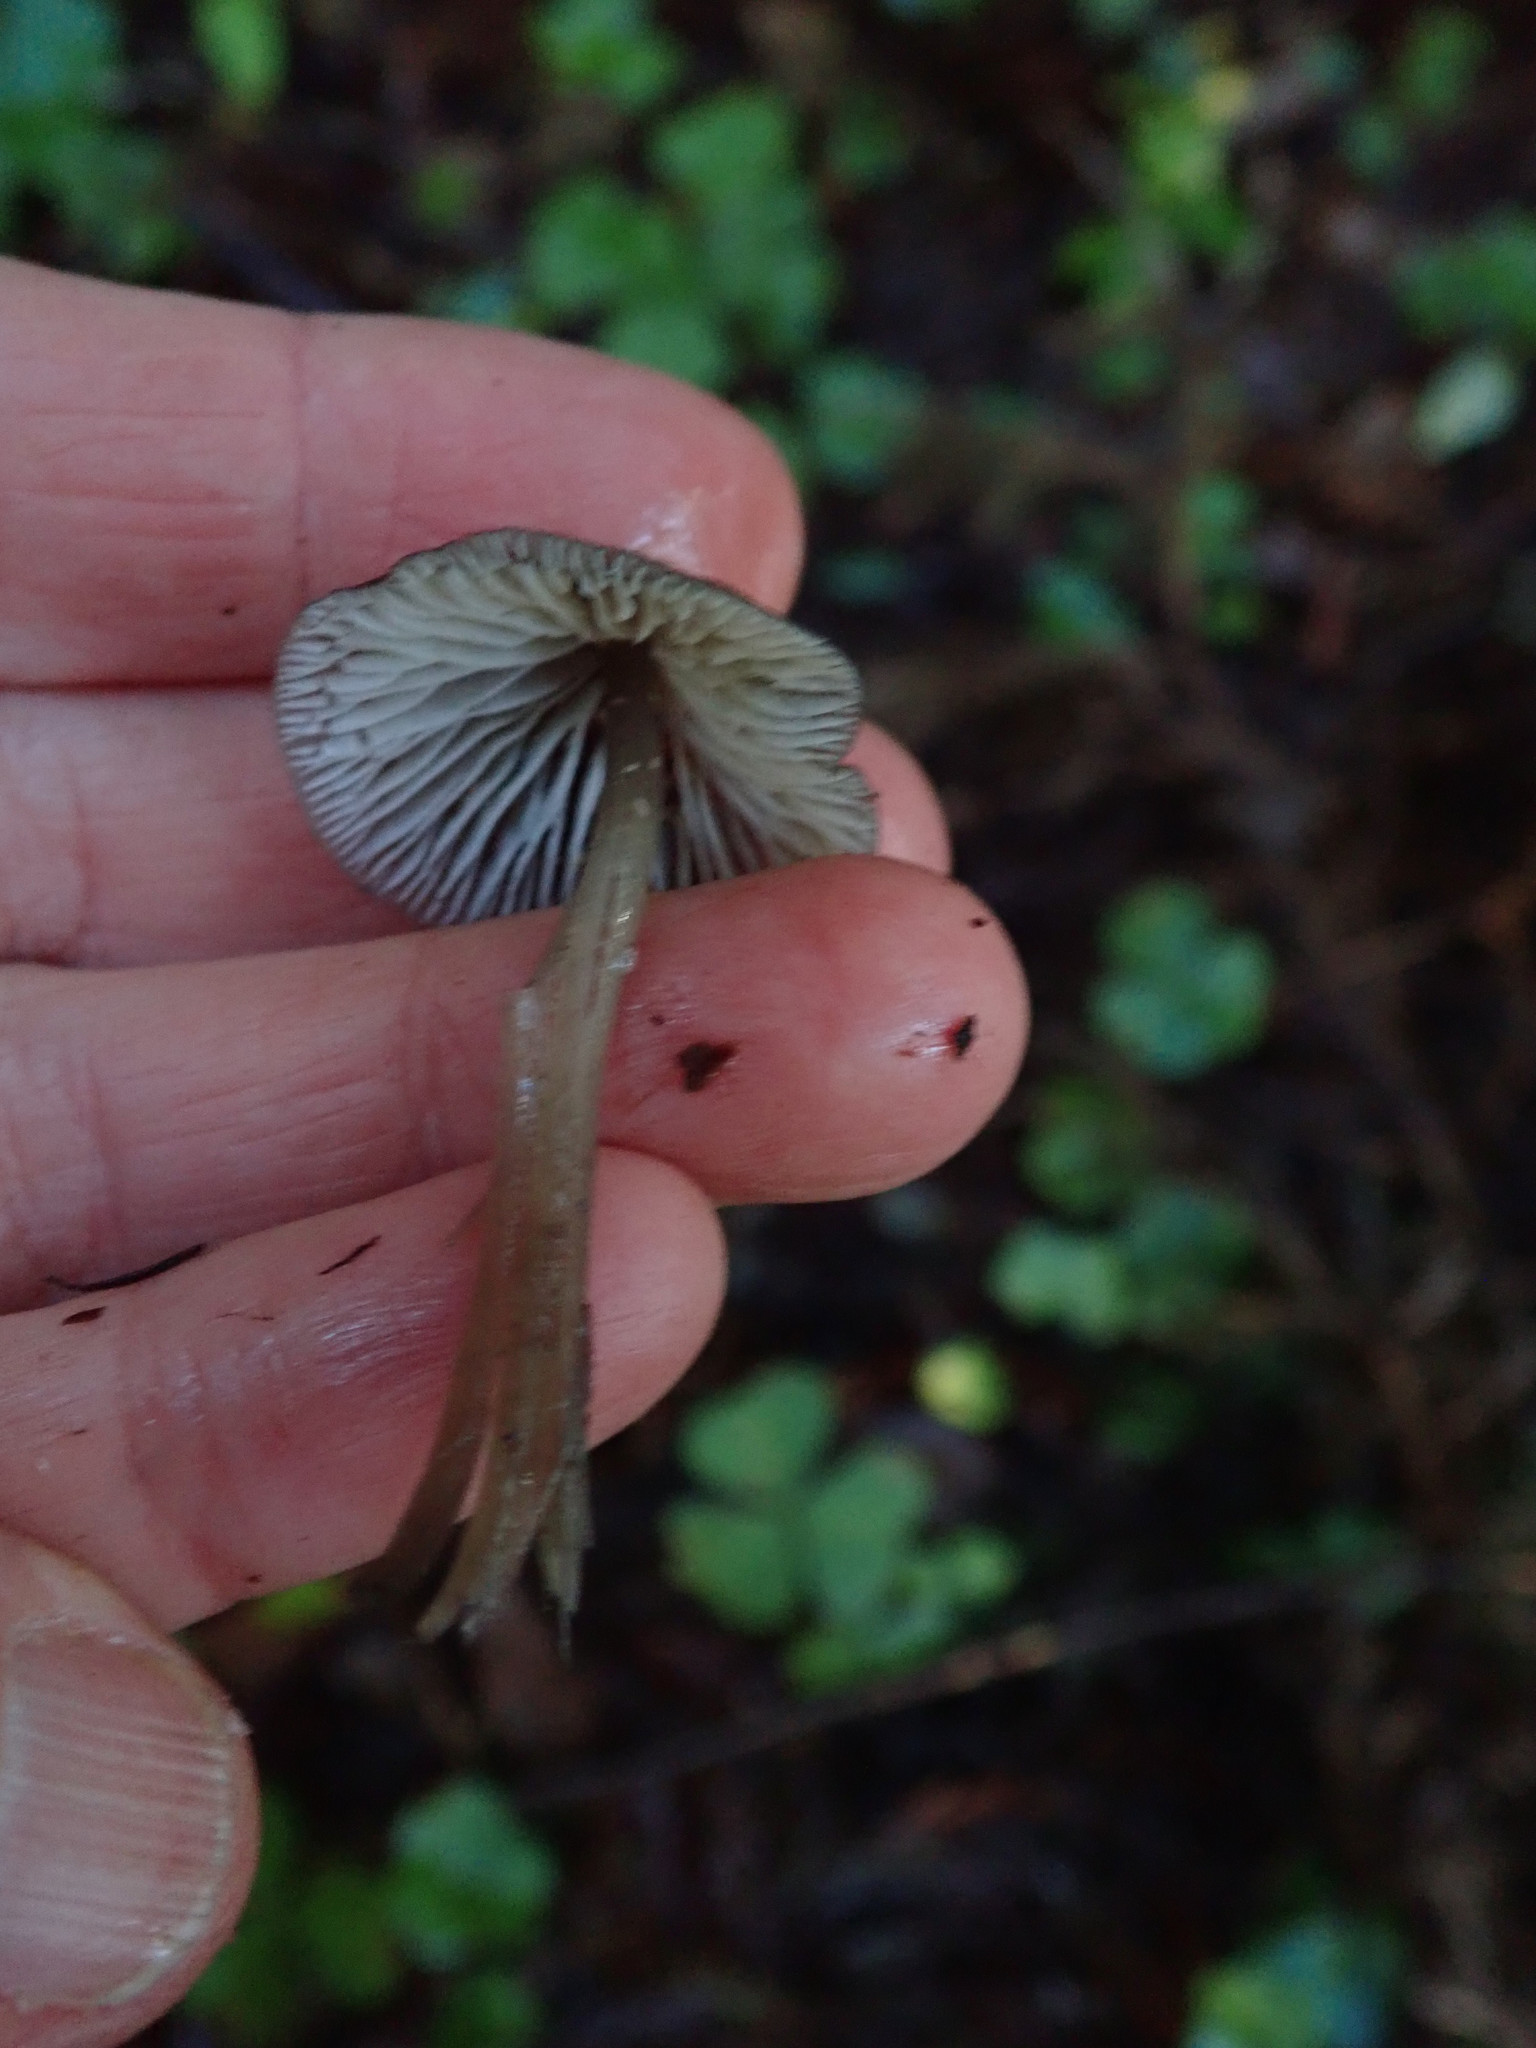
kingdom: Fungi
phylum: Basidiomycota
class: Agaricomycetes
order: Agaricales
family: Mycenaceae
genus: Mycena
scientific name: Mycena quiniaultensis
